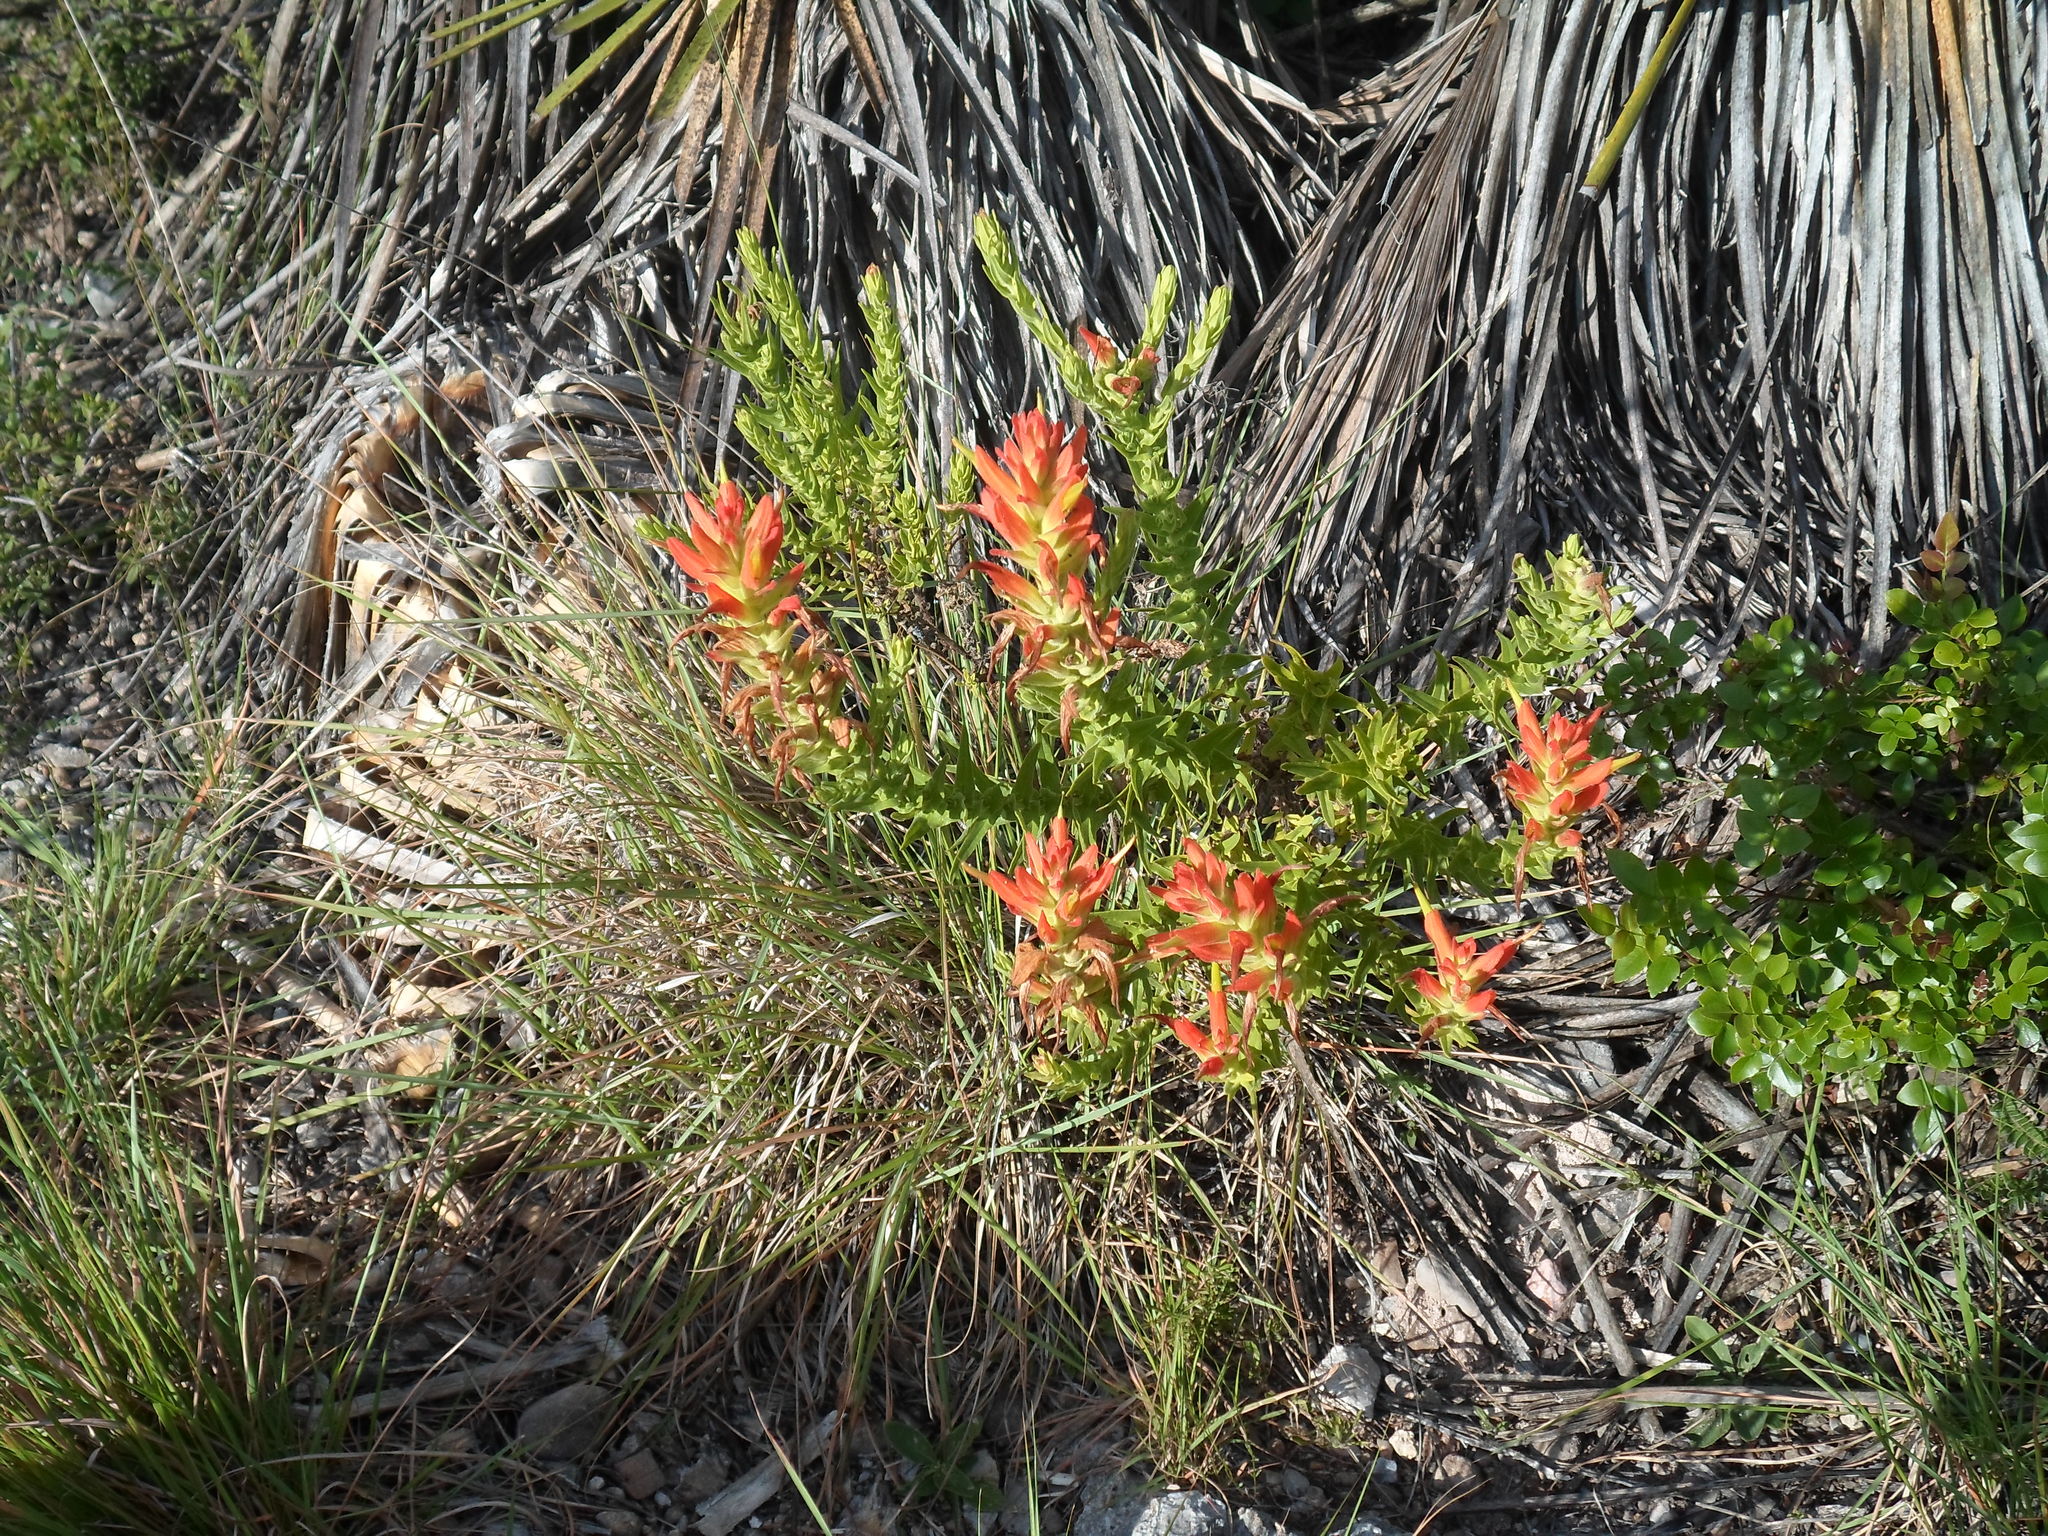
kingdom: Plantae
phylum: Tracheophyta
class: Magnoliopsida
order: Lamiales
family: Orobanchaceae
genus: Castilleja
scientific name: Castilleja auriculata
